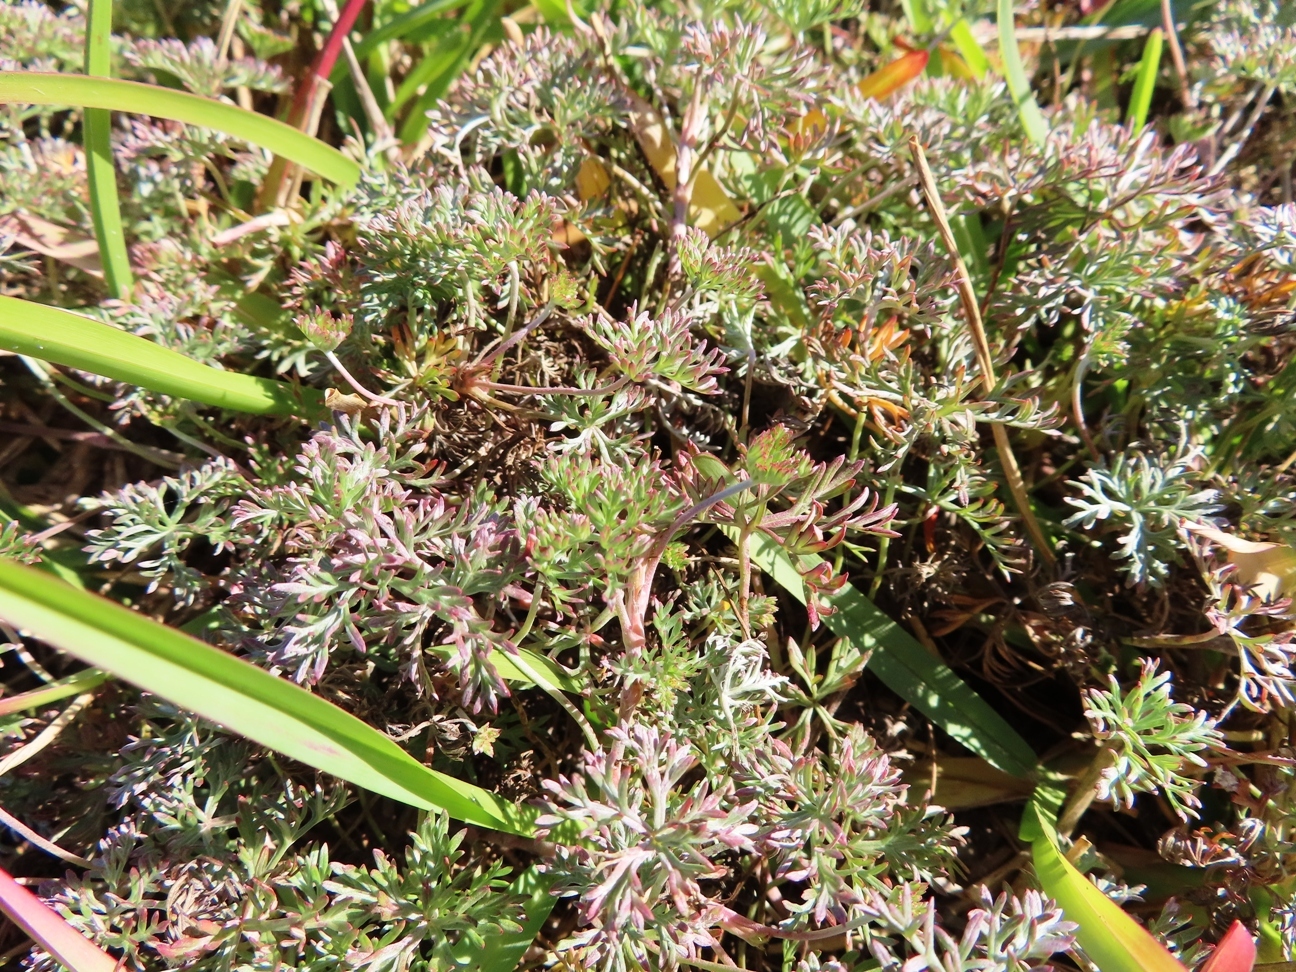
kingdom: Plantae
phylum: Tracheophyta
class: Magnoliopsida
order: Geraniales
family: Geraniaceae
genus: Geranium
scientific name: Geranium incanum
